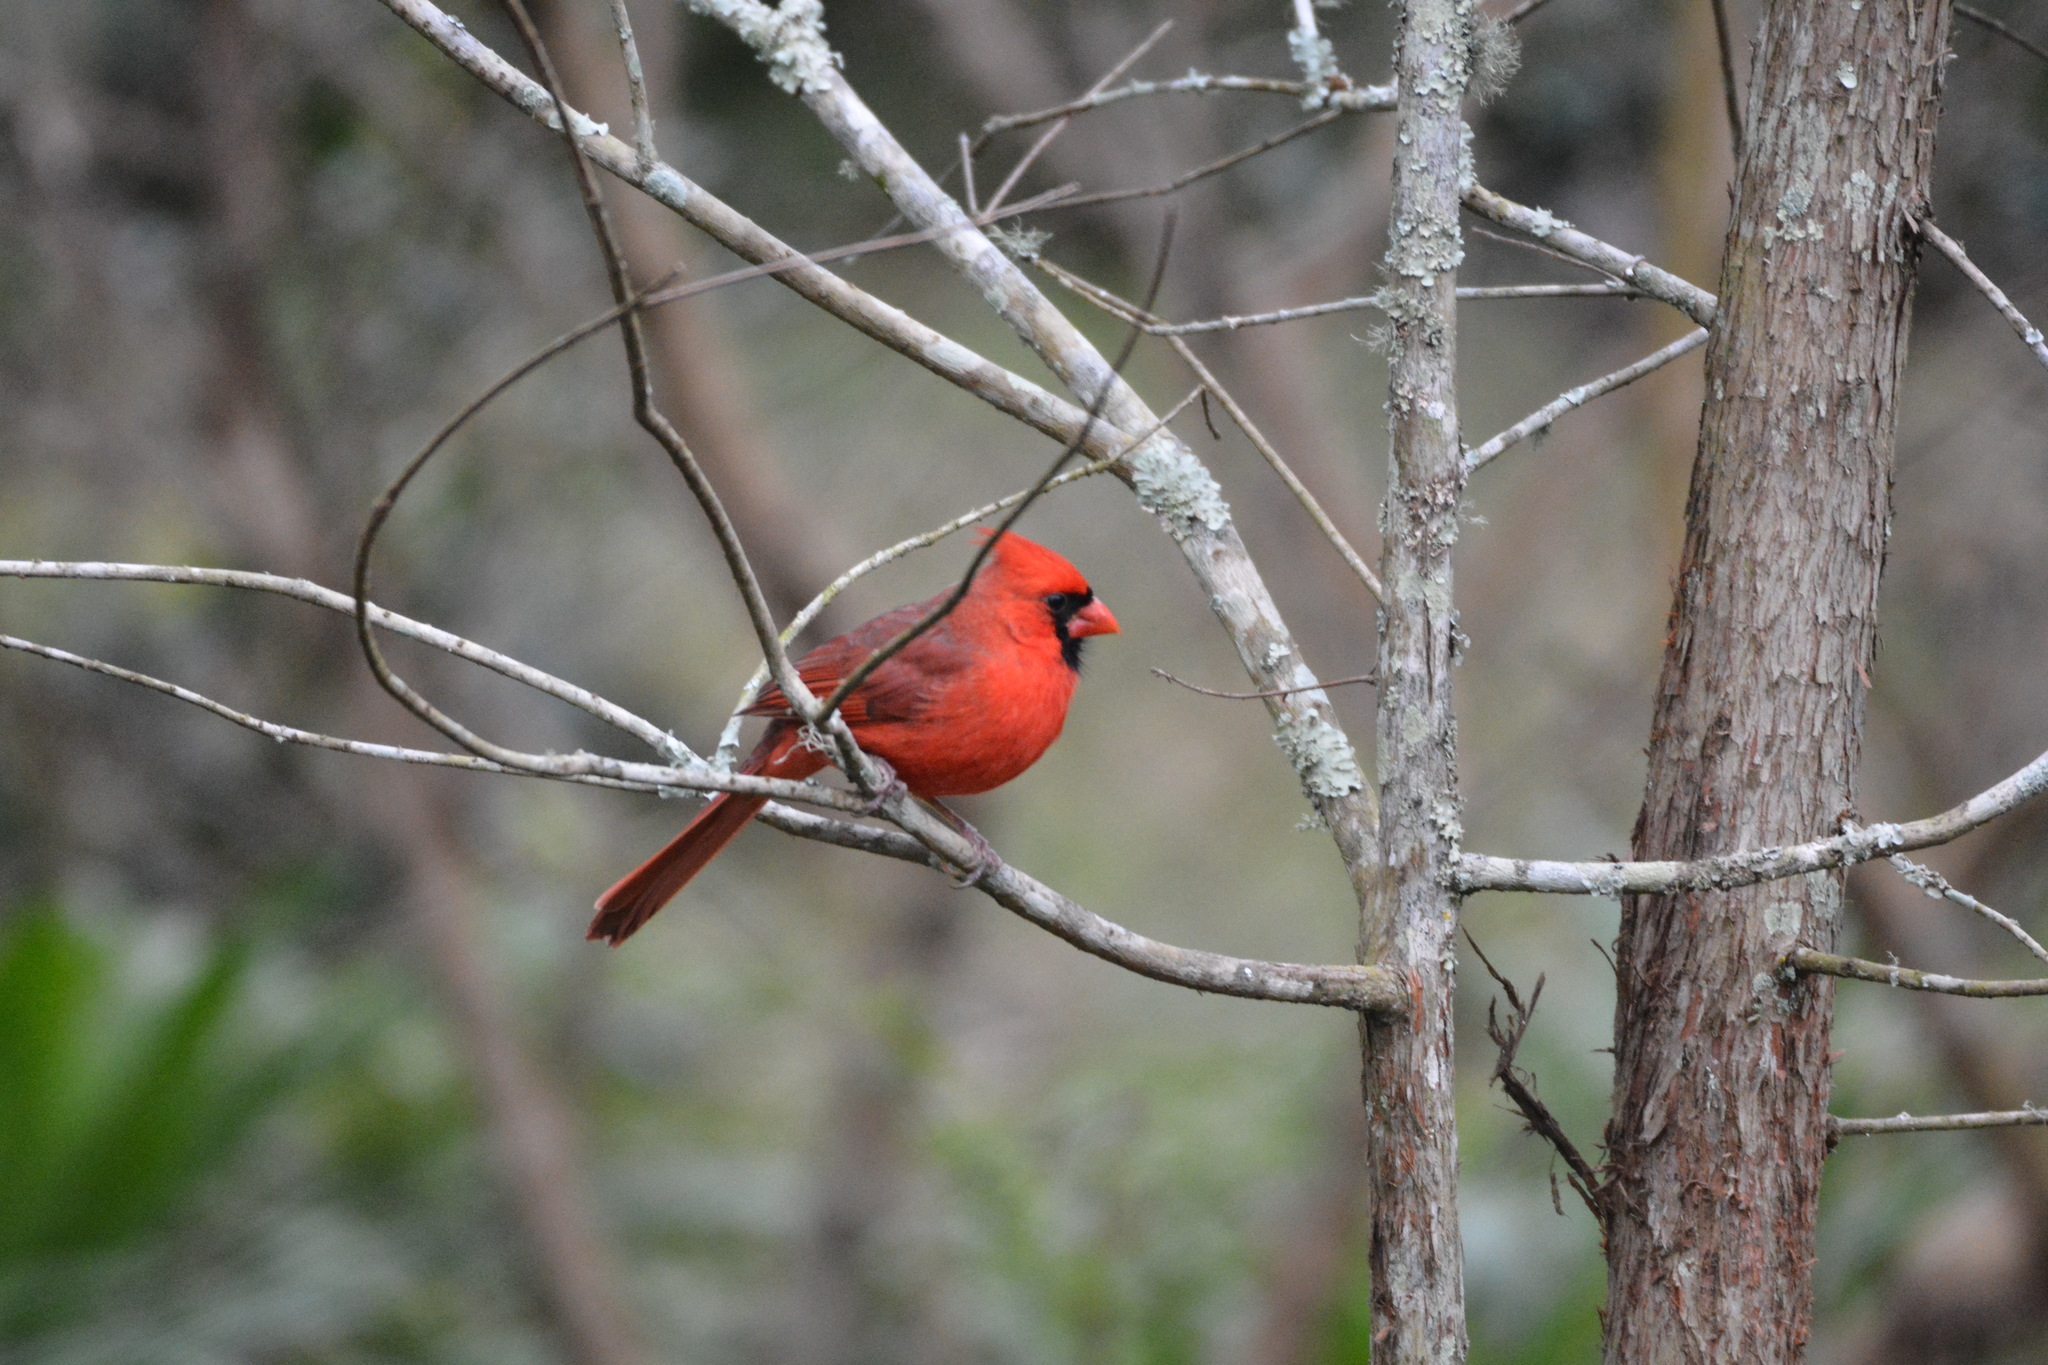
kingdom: Animalia
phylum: Chordata
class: Aves
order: Passeriformes
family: Cardinalidae
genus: Cardinalis
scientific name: Cardinalis cardinalis
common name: Northern cardinal
